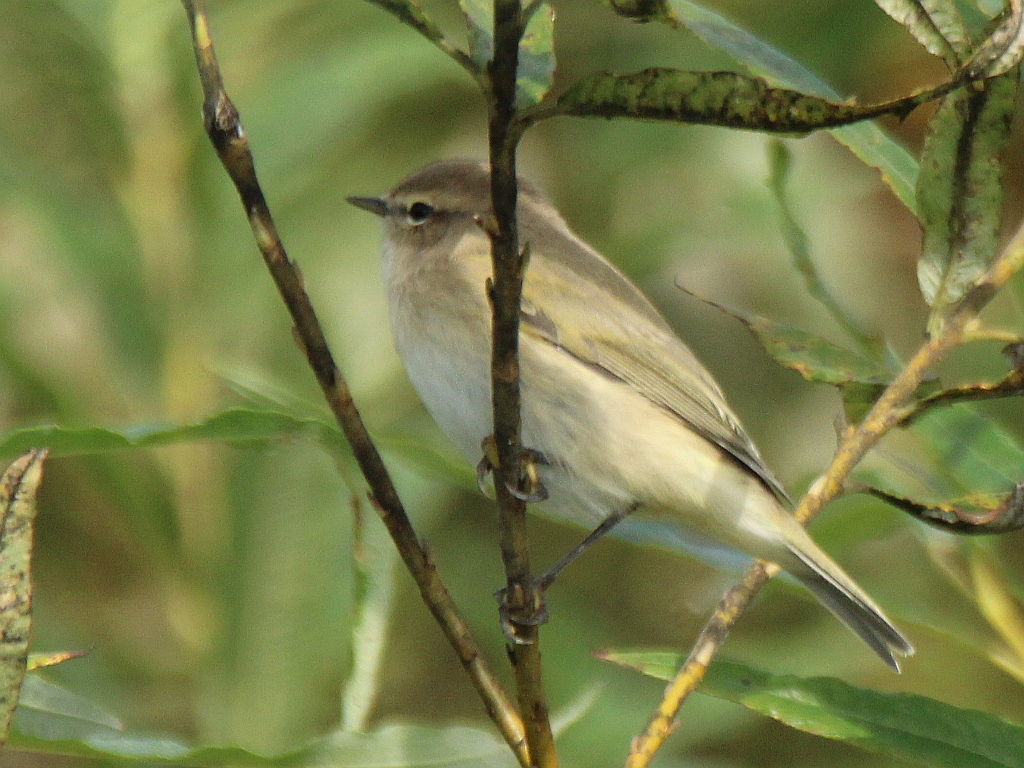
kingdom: Animalia
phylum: Chordata
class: Aves
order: Passeriformes
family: Phylloscopidae
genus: Phylloscopus
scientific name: Phylloscopus collybita
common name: Common chiffchaff
